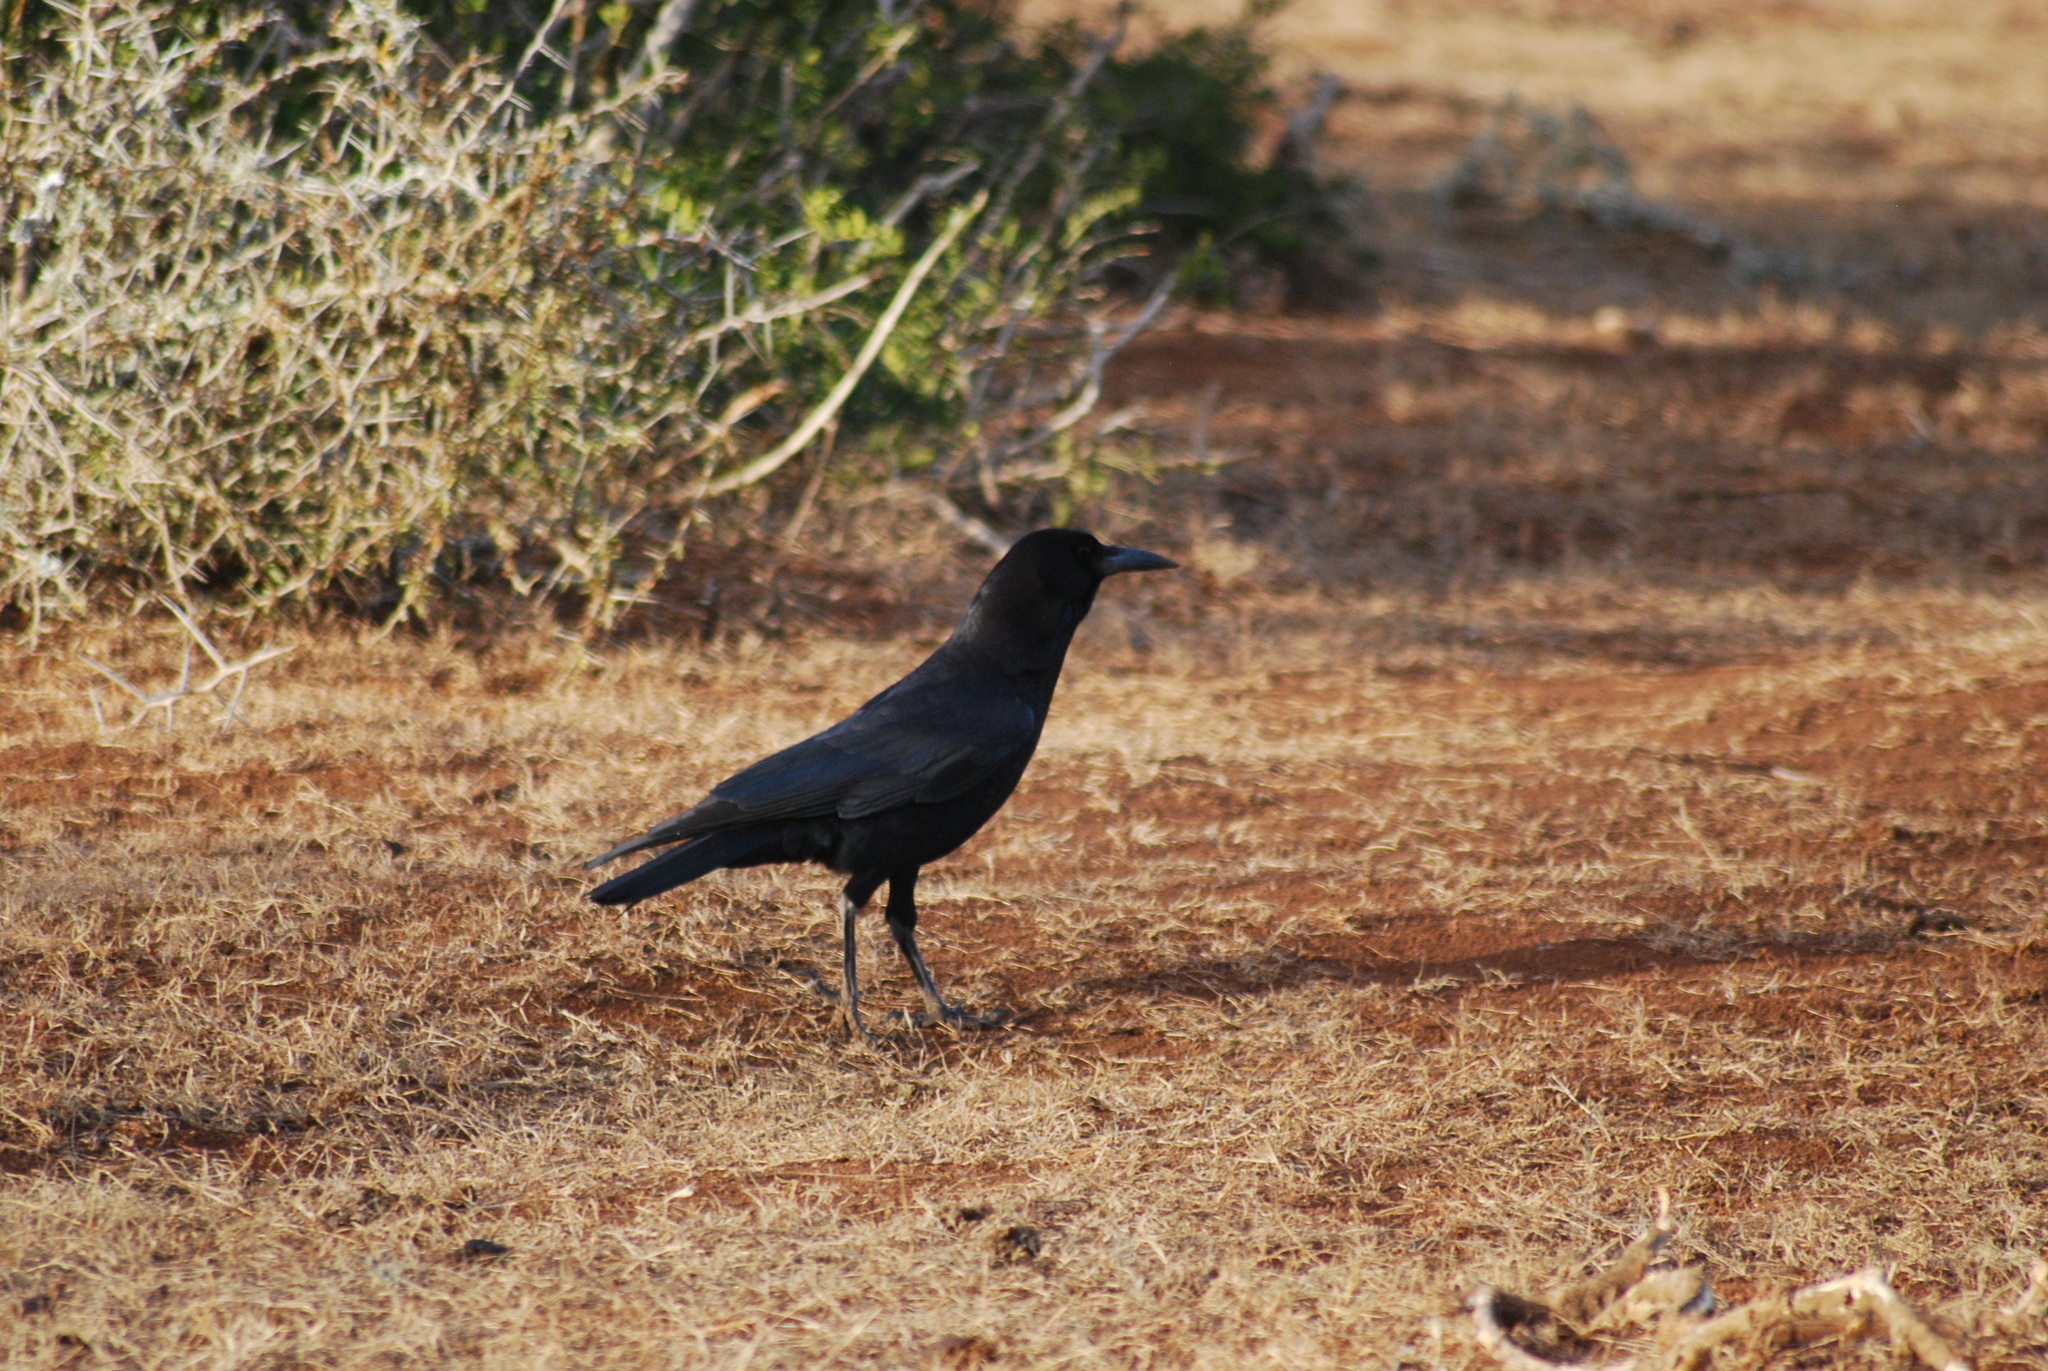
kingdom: Animalia
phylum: Chordata
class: Aves
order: Passeriformes
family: Corvidae
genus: Corvus
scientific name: Corvus capensis
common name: Cape crow
